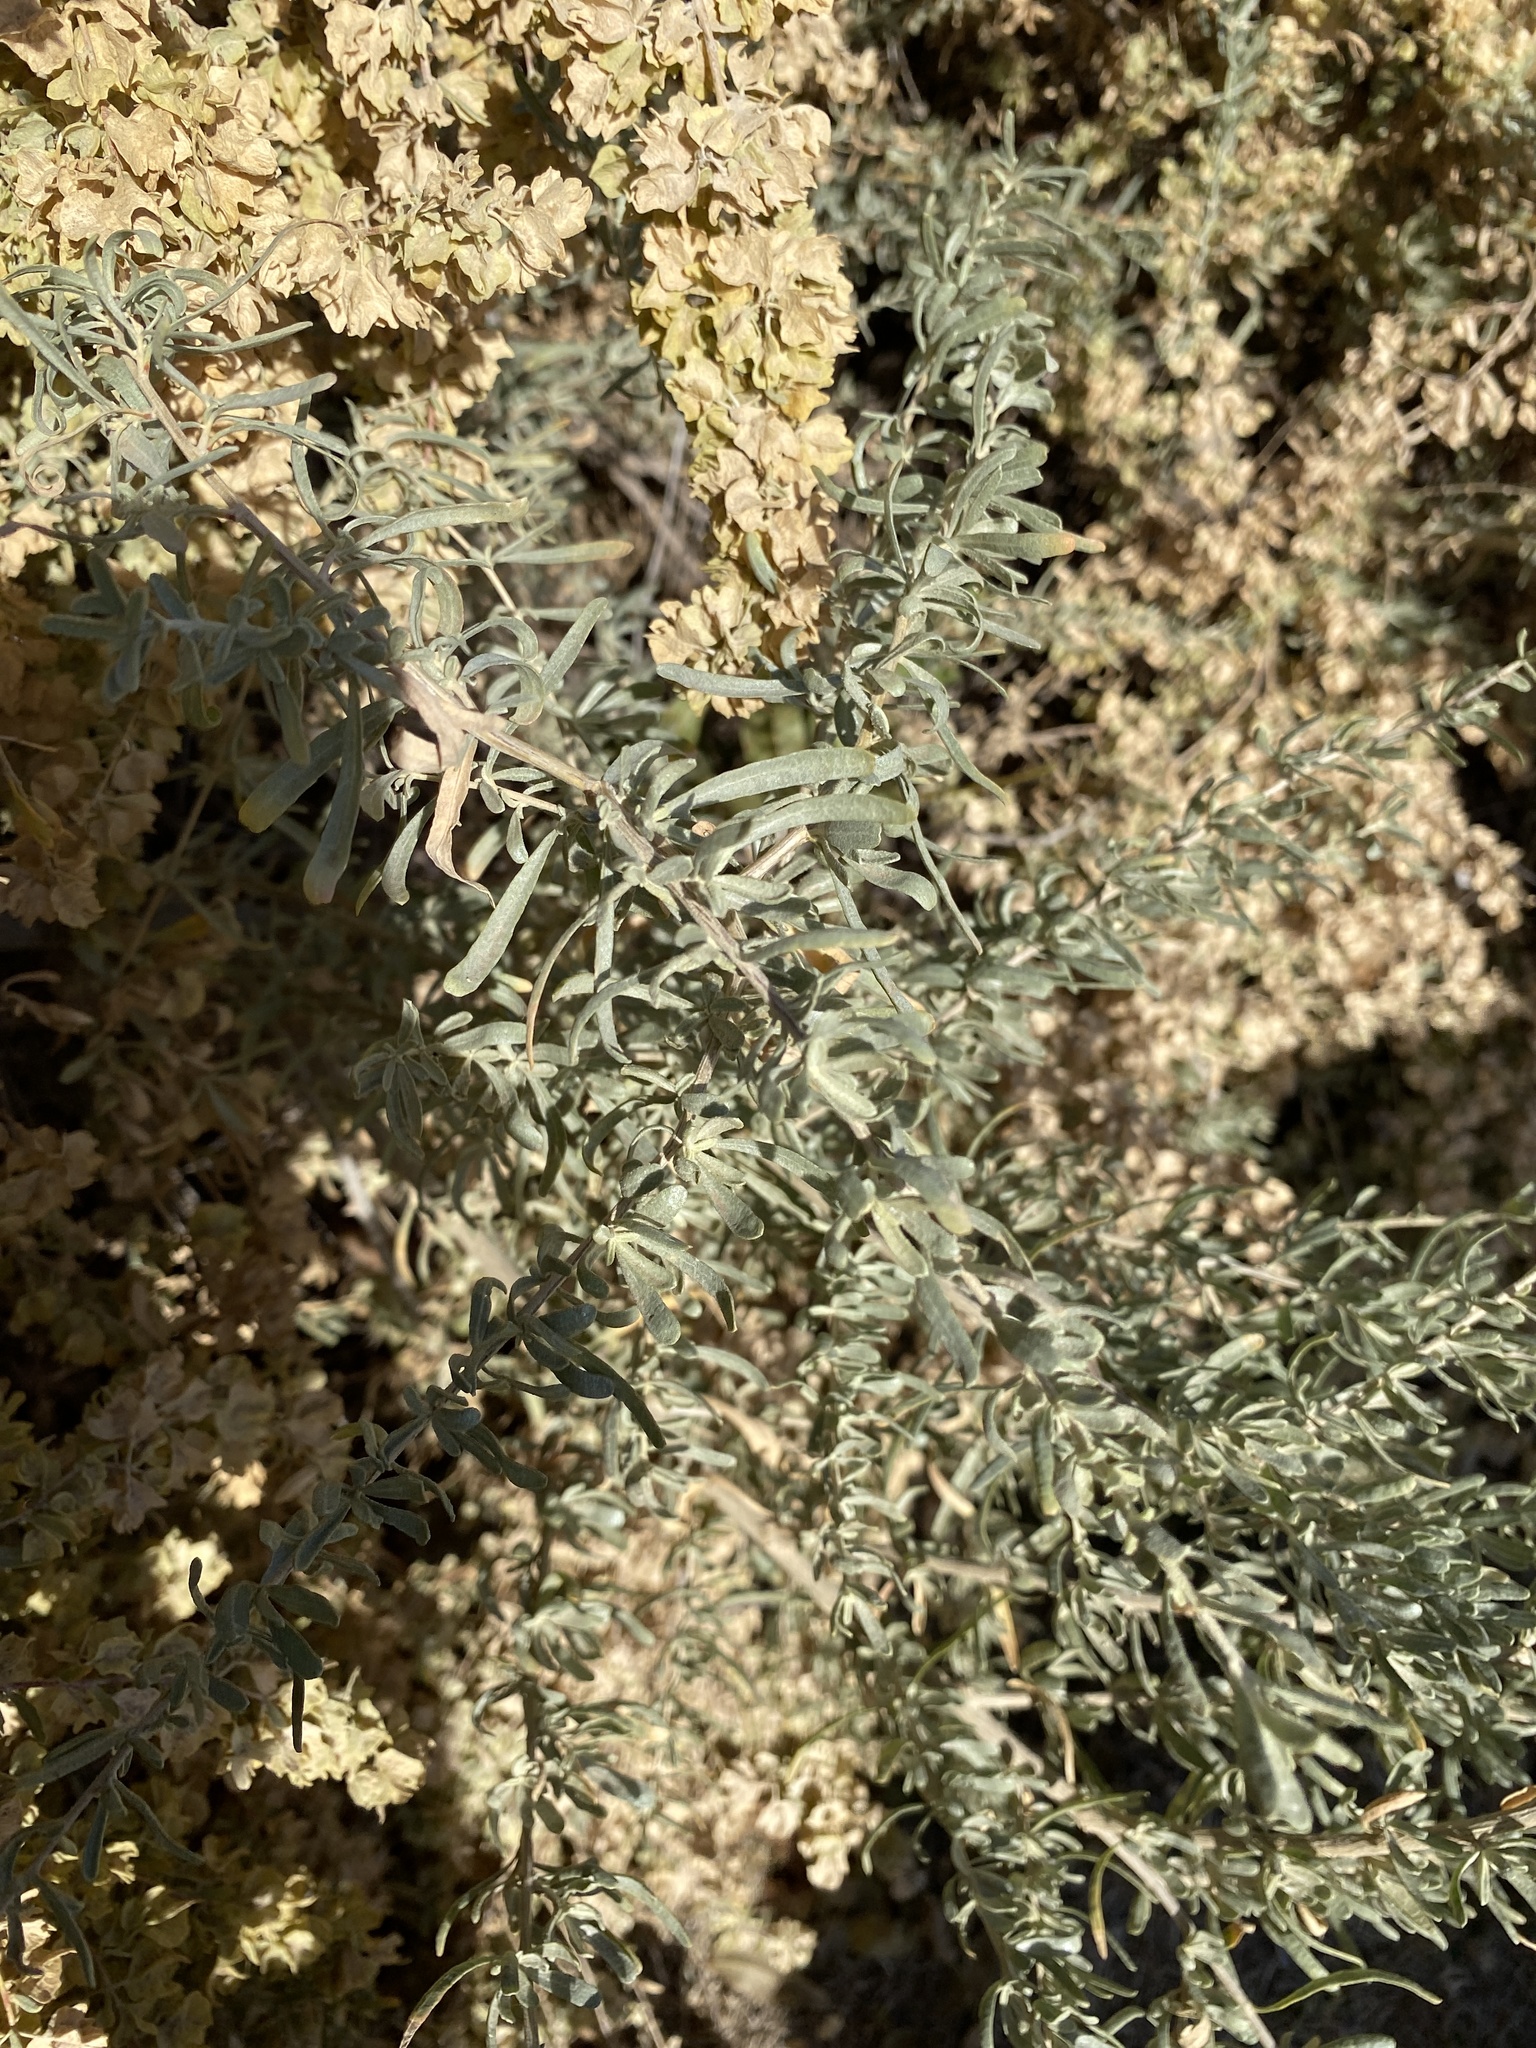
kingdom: Plantae
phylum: Tracheophyta
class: Magnoliopsida
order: Caryophyllales
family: Amaranthaceae
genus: Atriplex
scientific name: Atriplex canescens
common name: Four-wing saltbush
